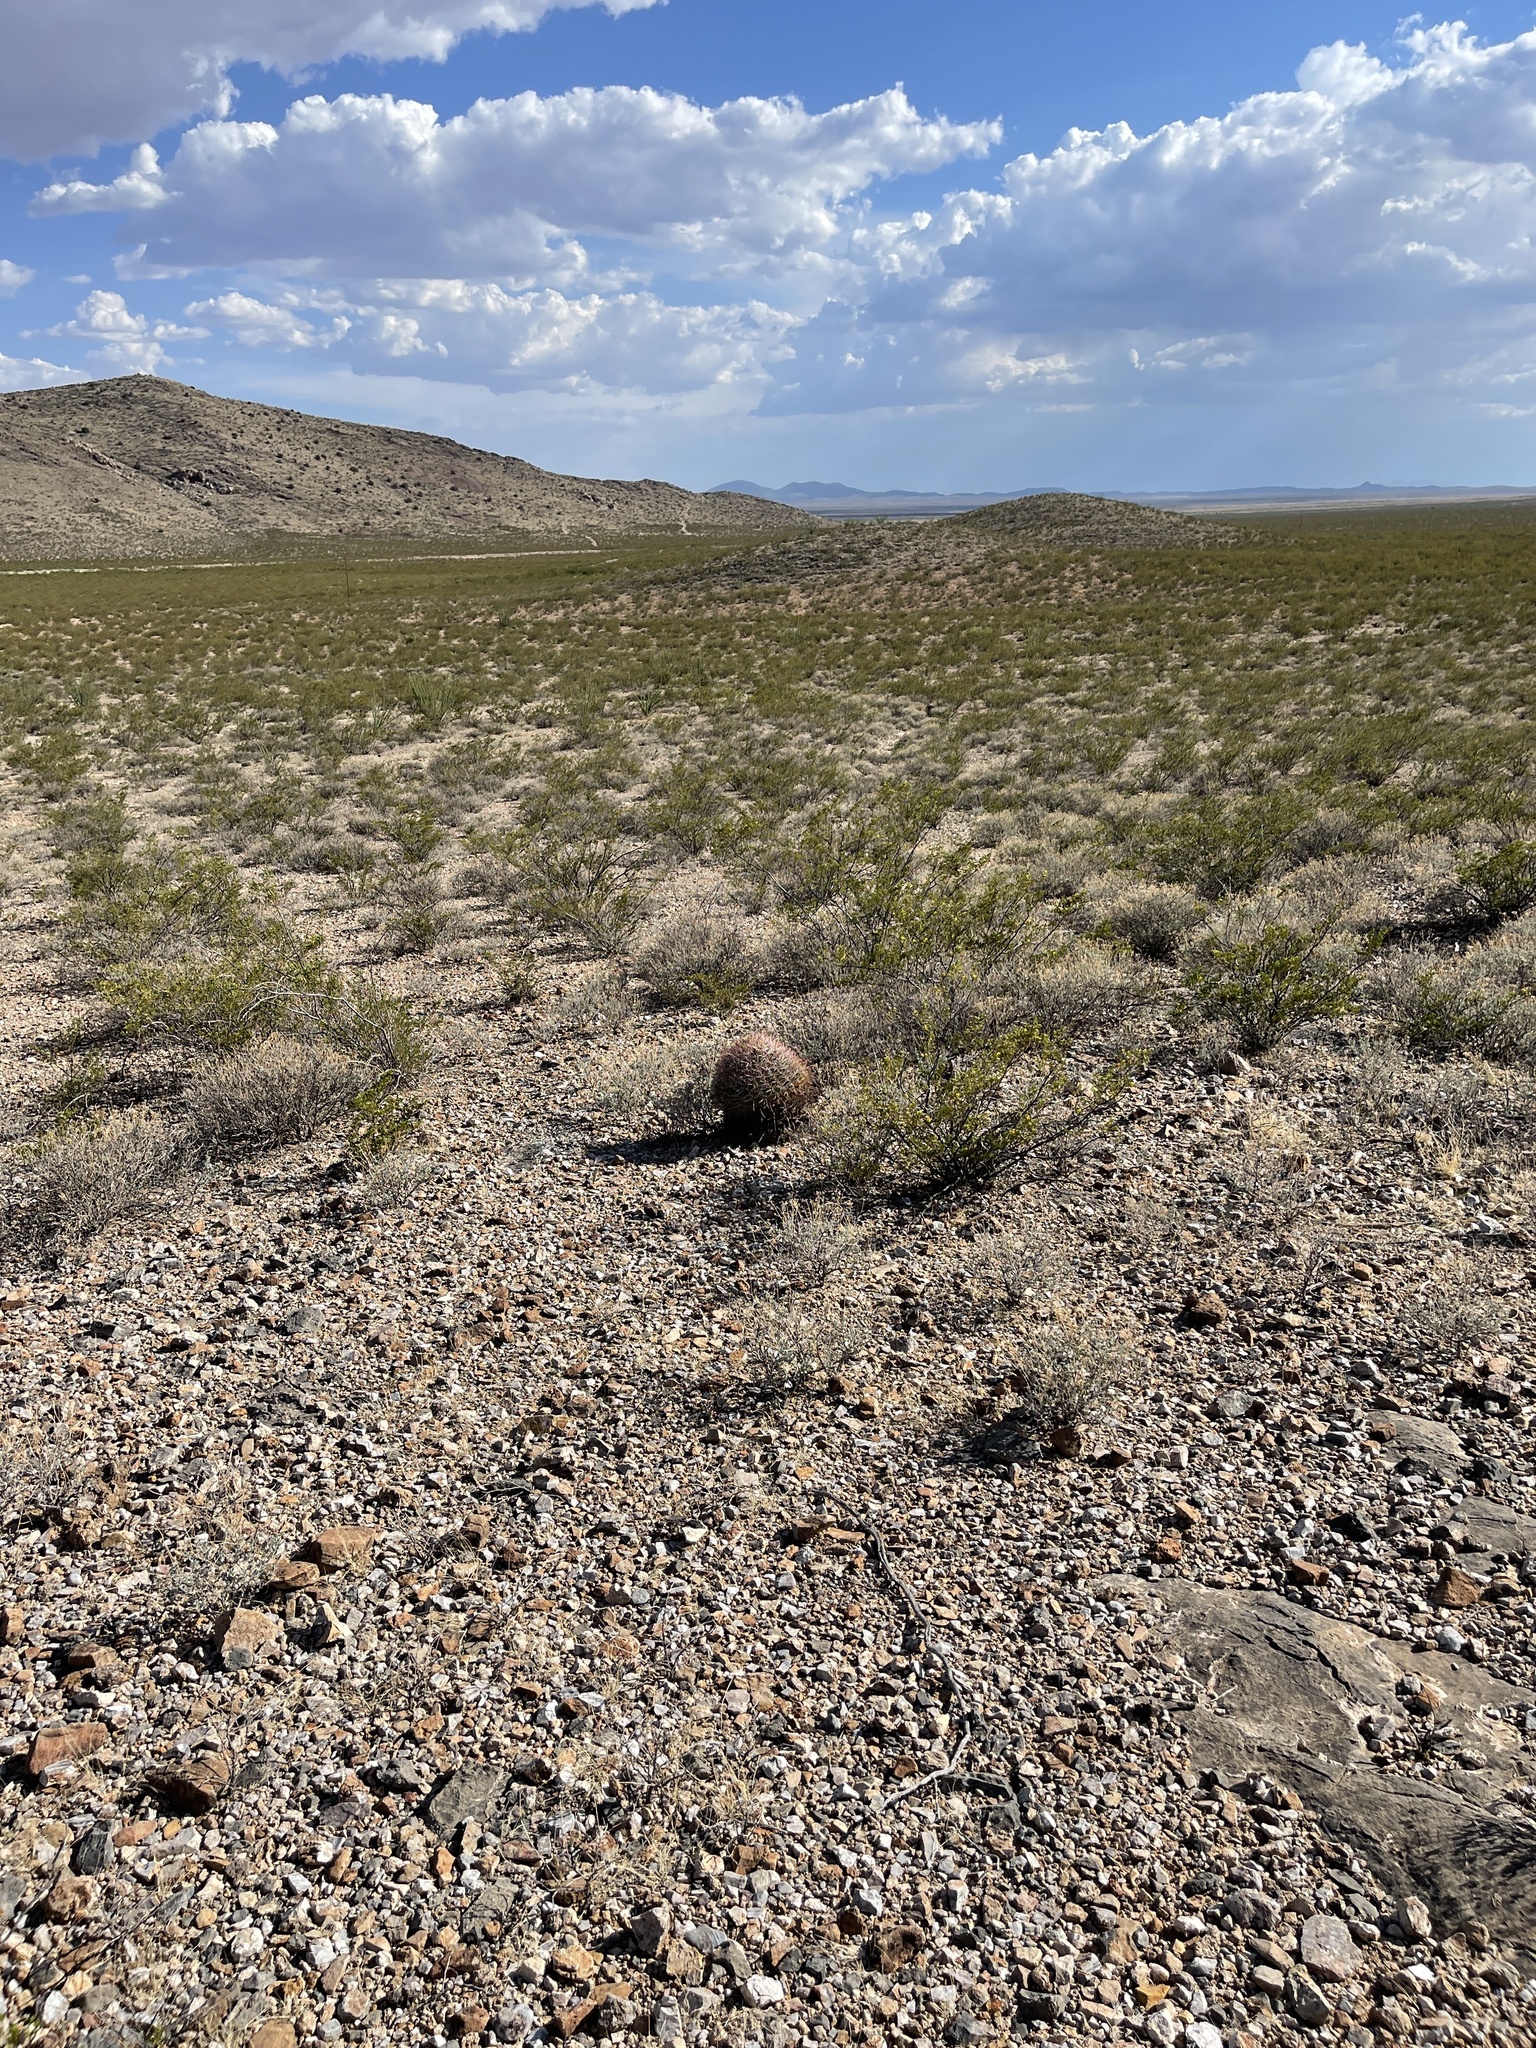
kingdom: Plantae
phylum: Tracheophyta
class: Magnoliopsida
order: Caryophyllales
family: Cactaceae
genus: Ferocactus
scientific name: Ferocactus wislizeni
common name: Candy barrel cactus
